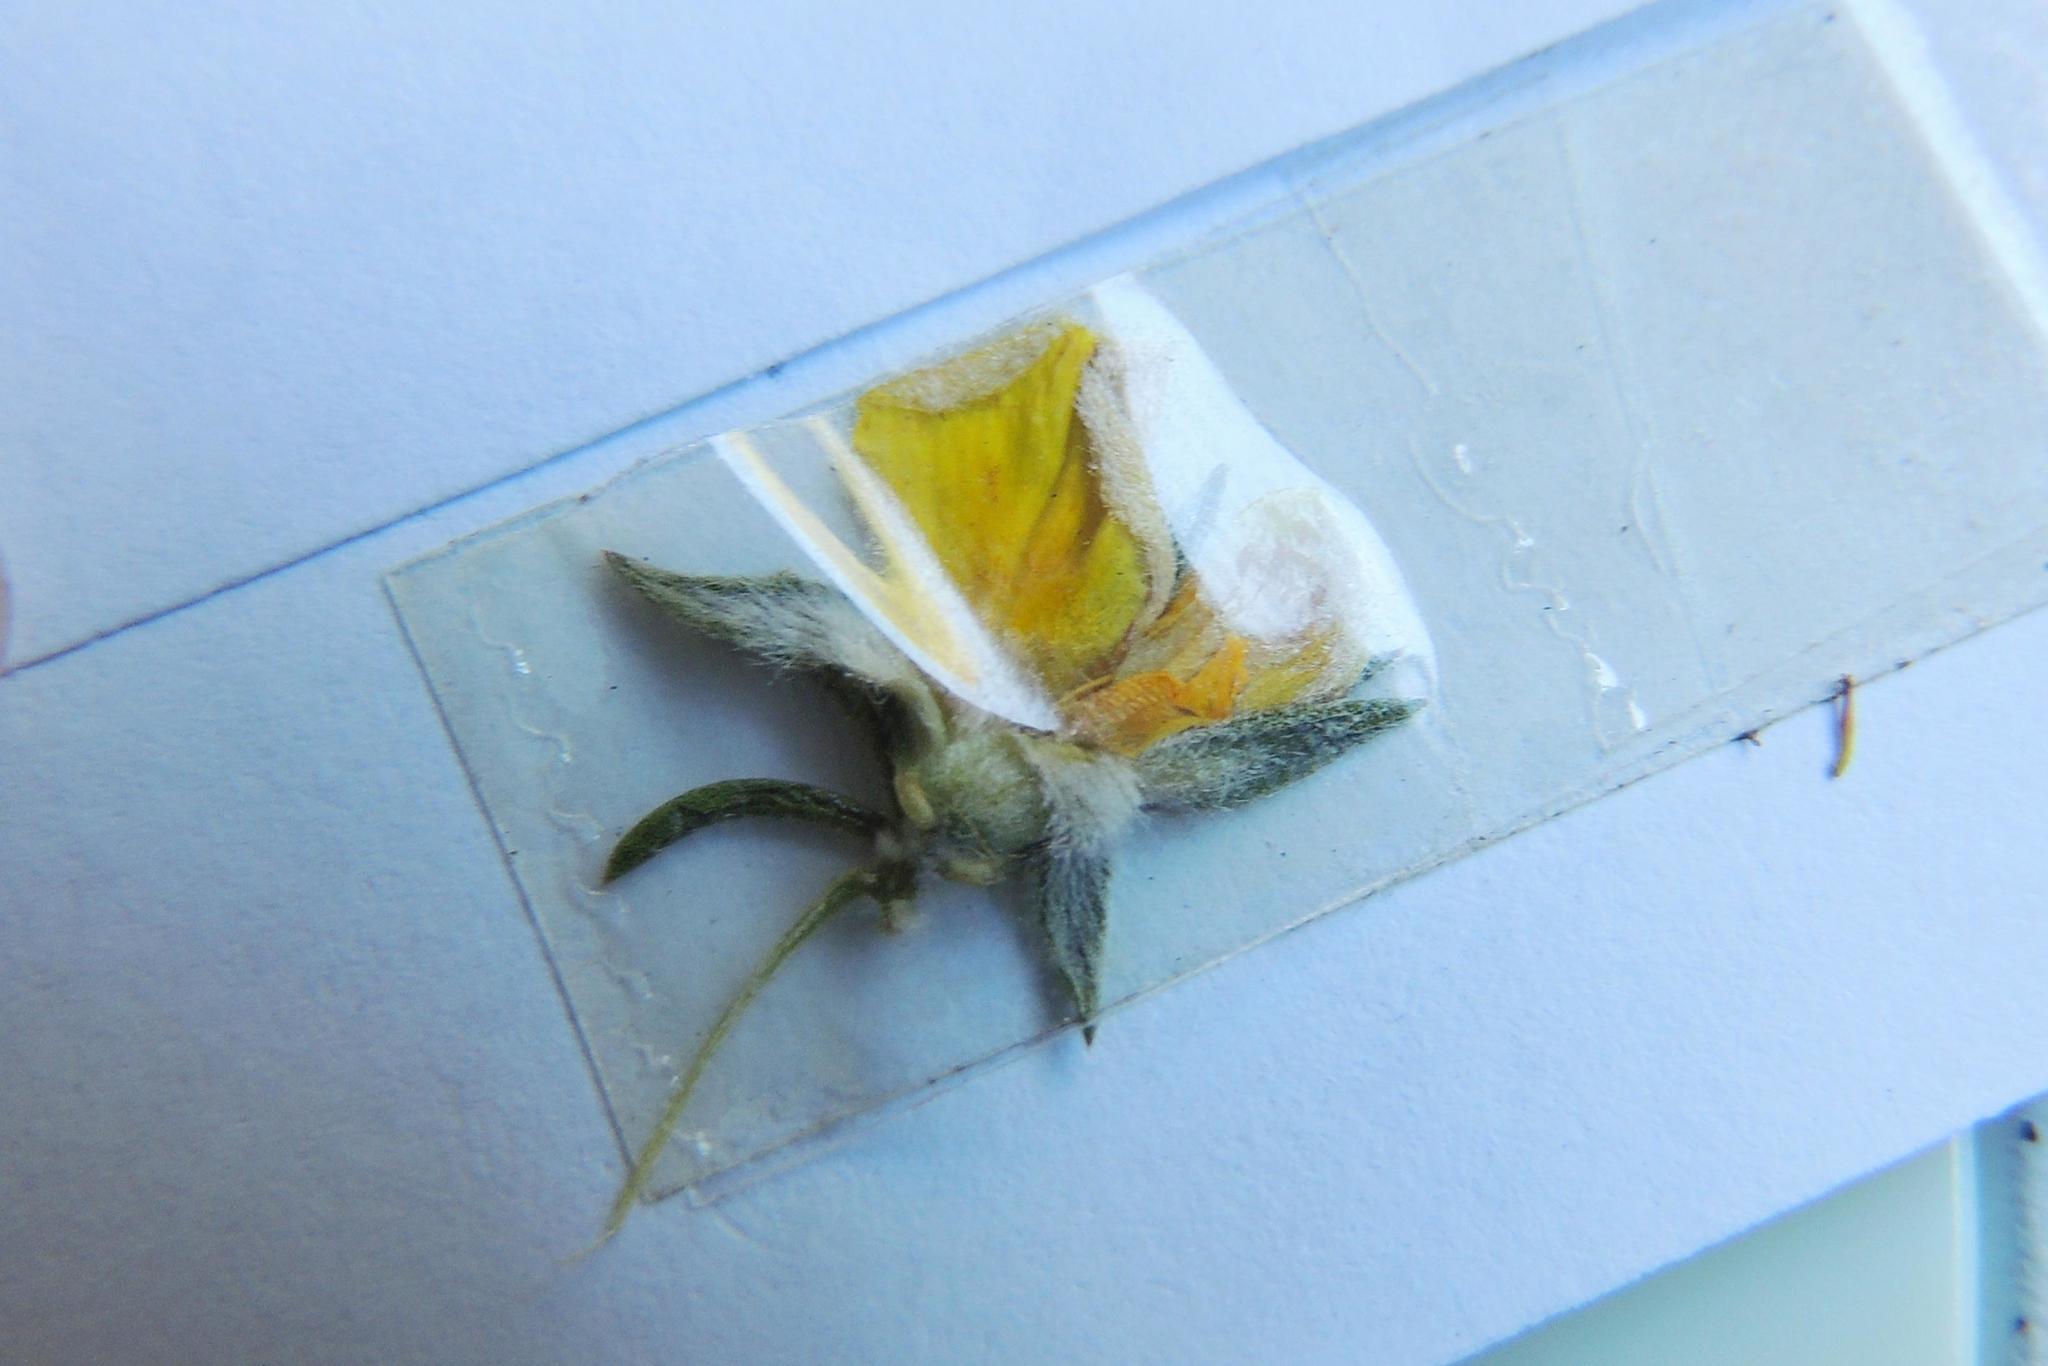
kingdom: Plantae
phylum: Tracheophyta
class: Magnoliopsida
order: Fabales
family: Fabaceae
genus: Aspalathus
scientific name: Aspalathus opaca
